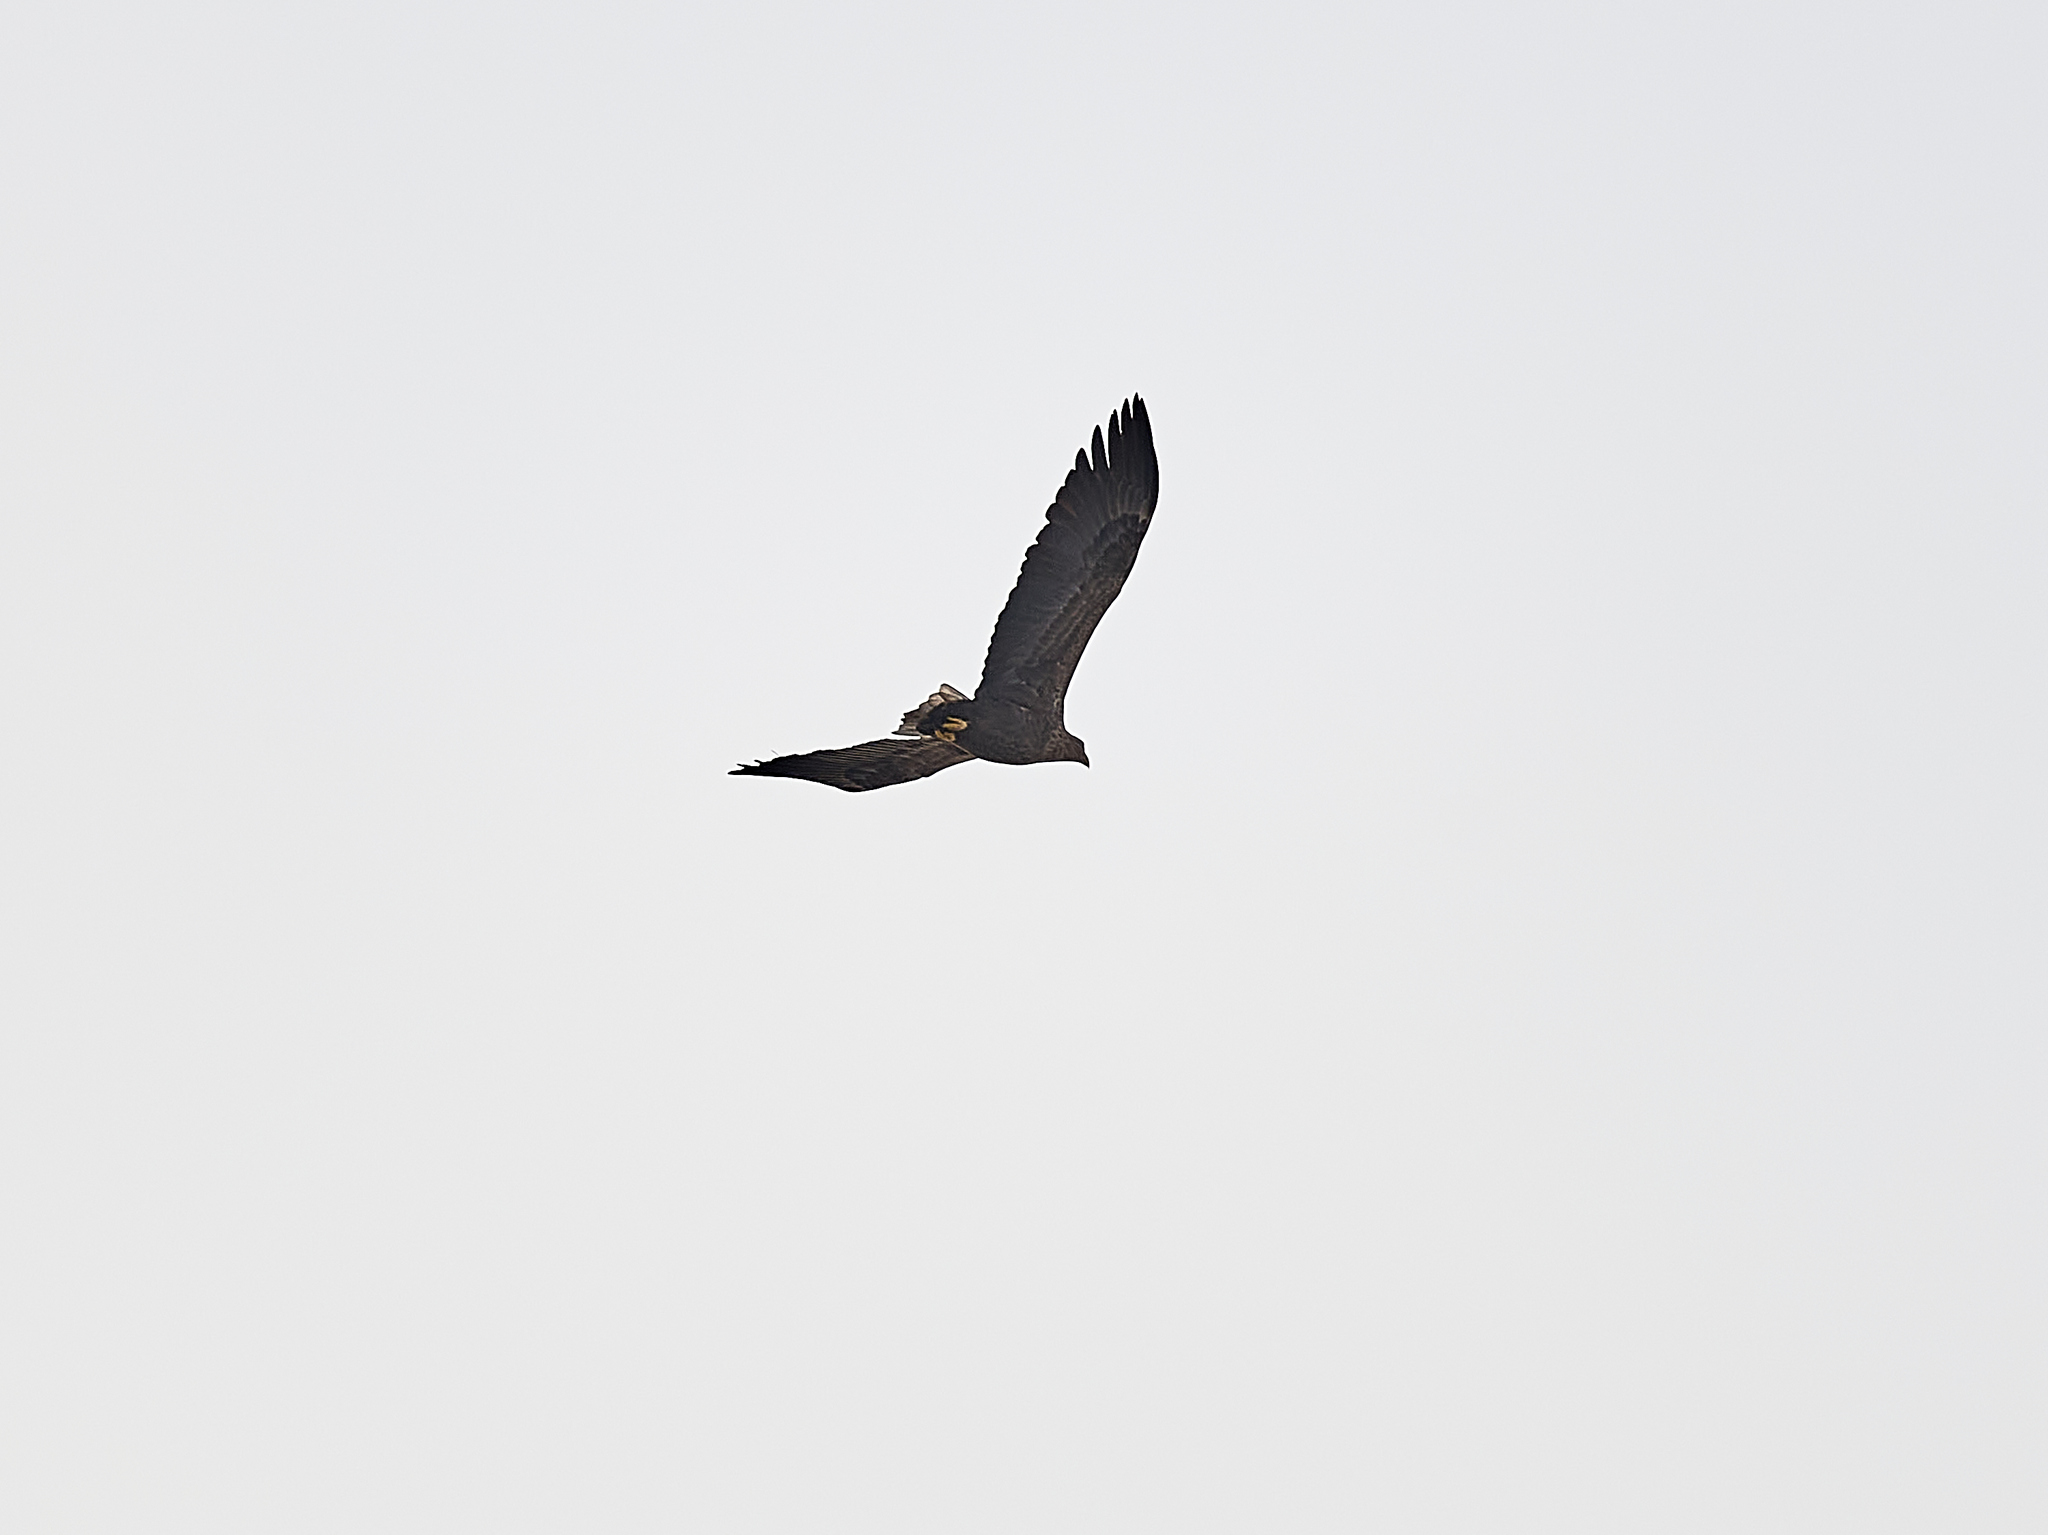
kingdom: Animalia
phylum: Chordata
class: Aves
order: Accipitriformes
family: Accipitridae
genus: Haliaeetus
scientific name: Haliaeetus albicilla
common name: White-tailed eagle
